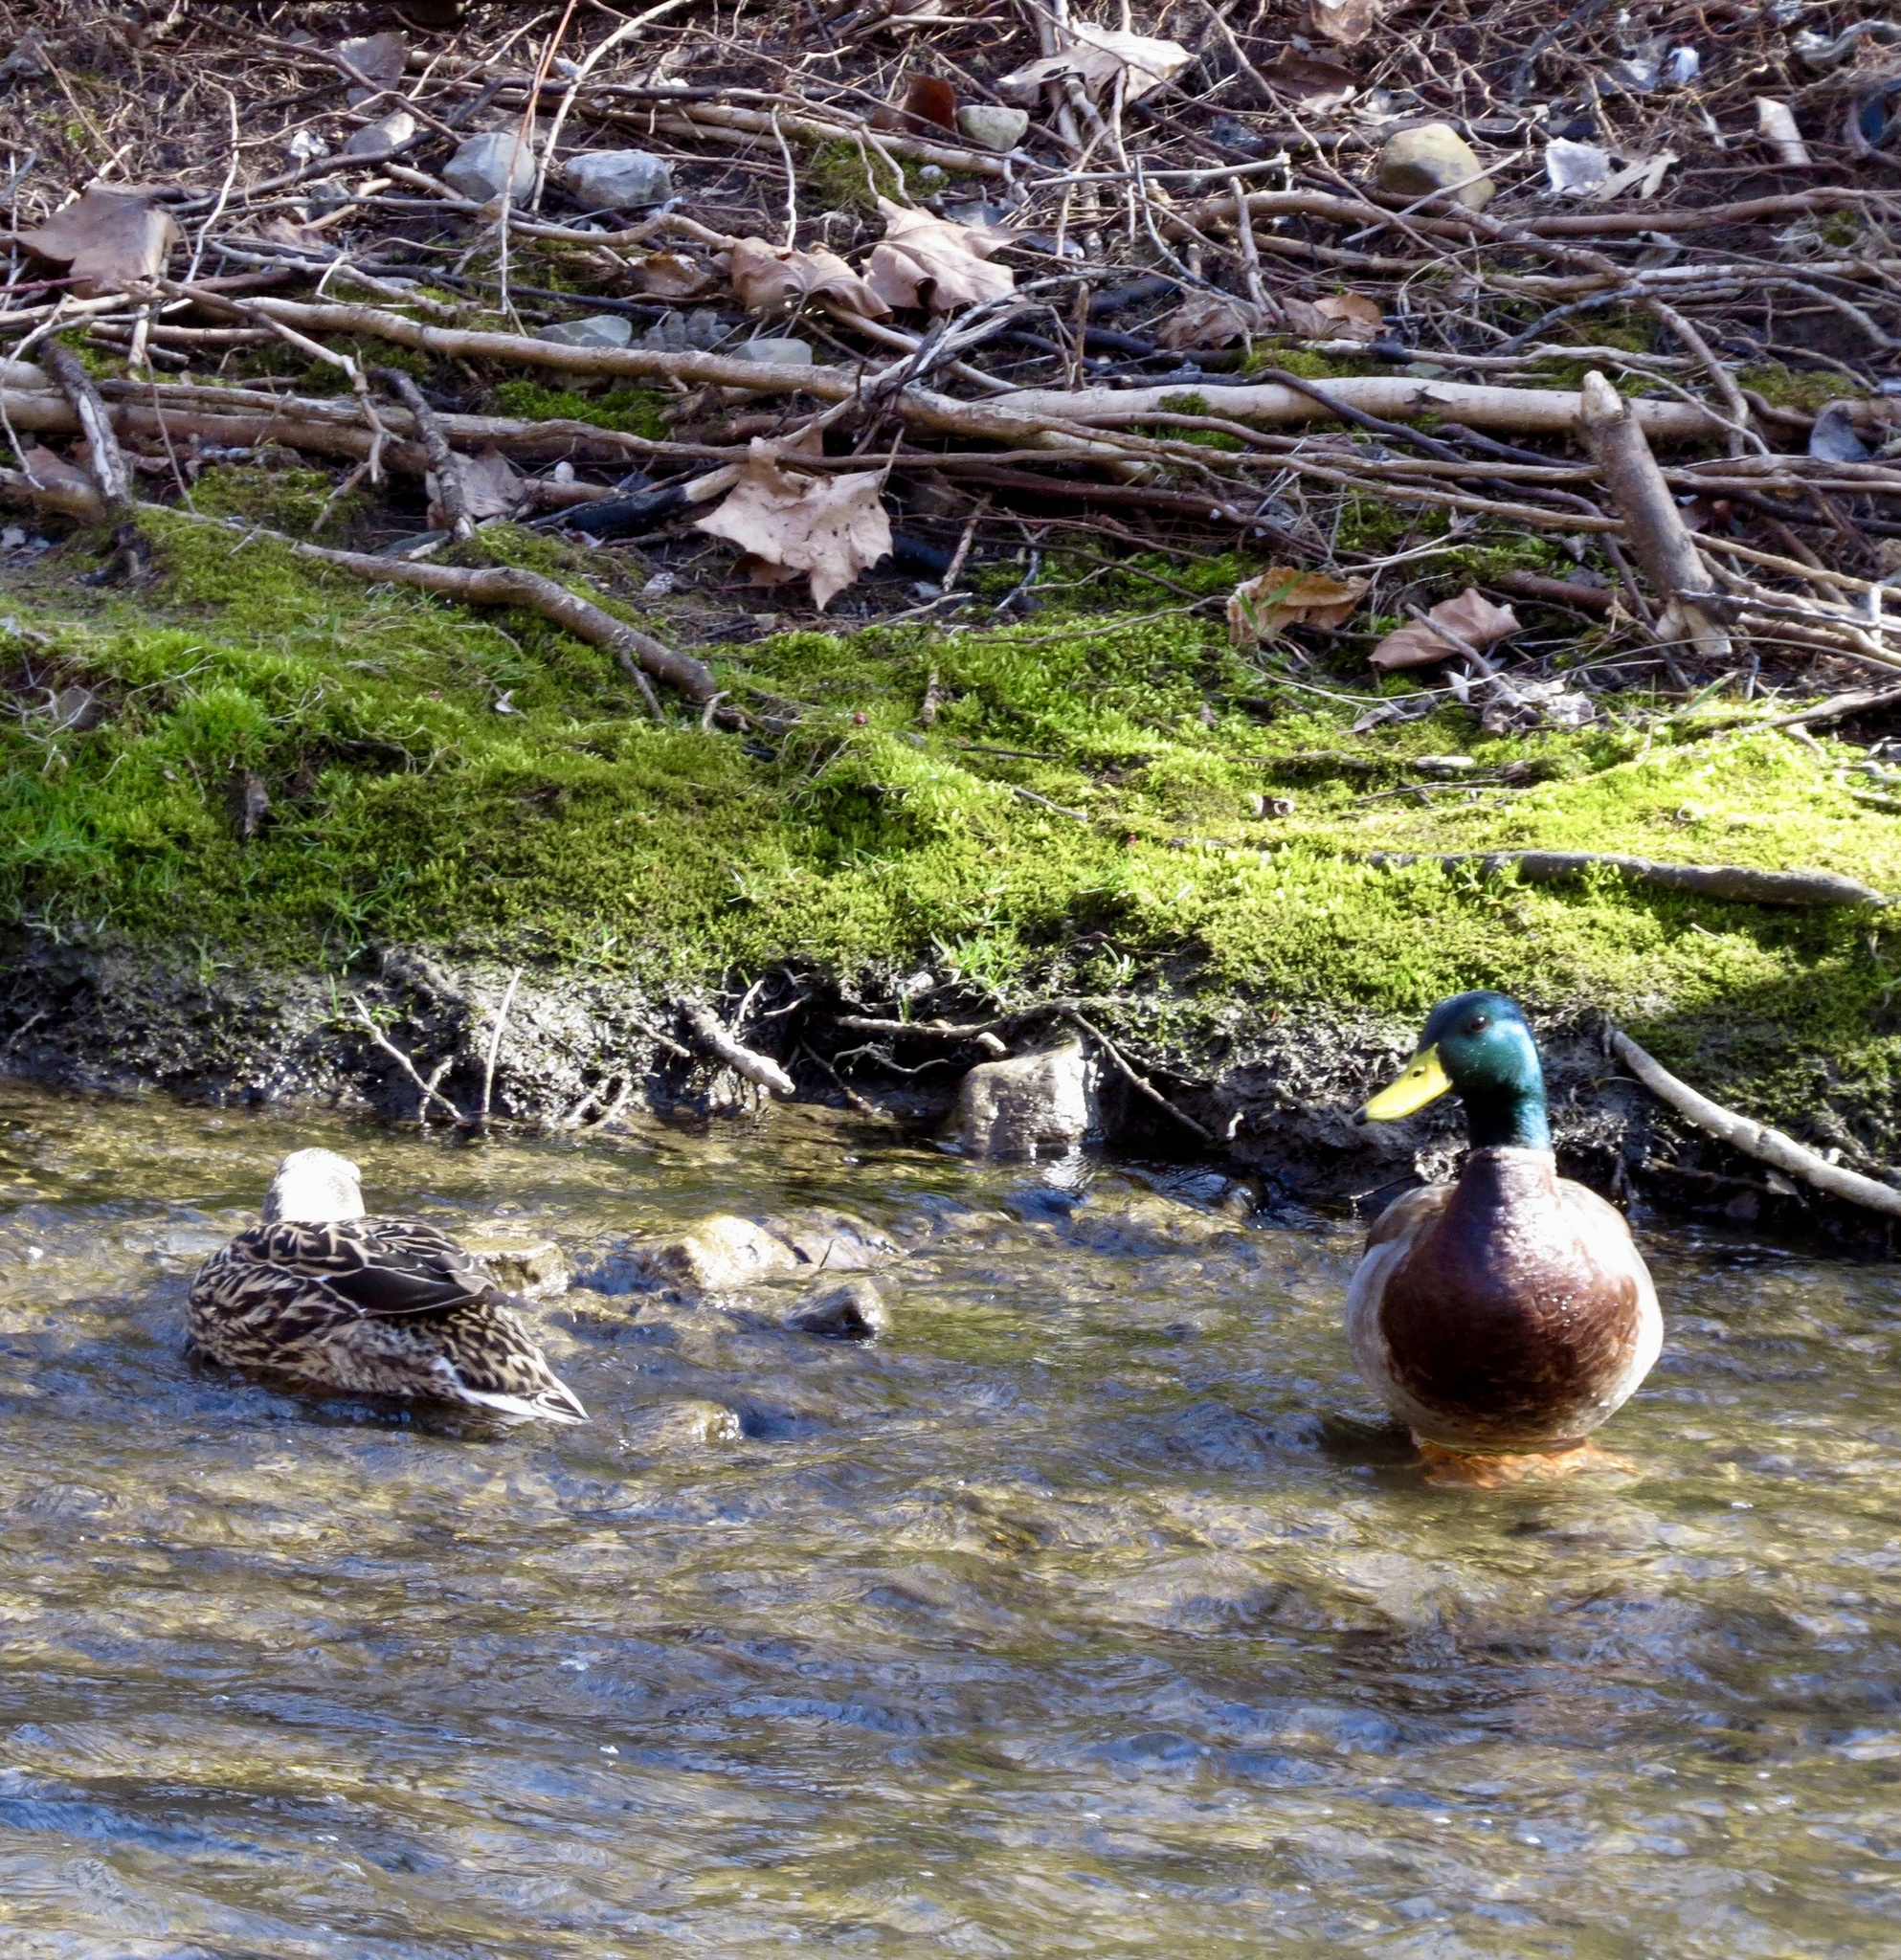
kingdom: Animalia
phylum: Chordata
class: Aves
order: Anseriformes
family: Anatidae
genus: Anas
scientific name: Anas platyrhynchos
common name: Mallard
